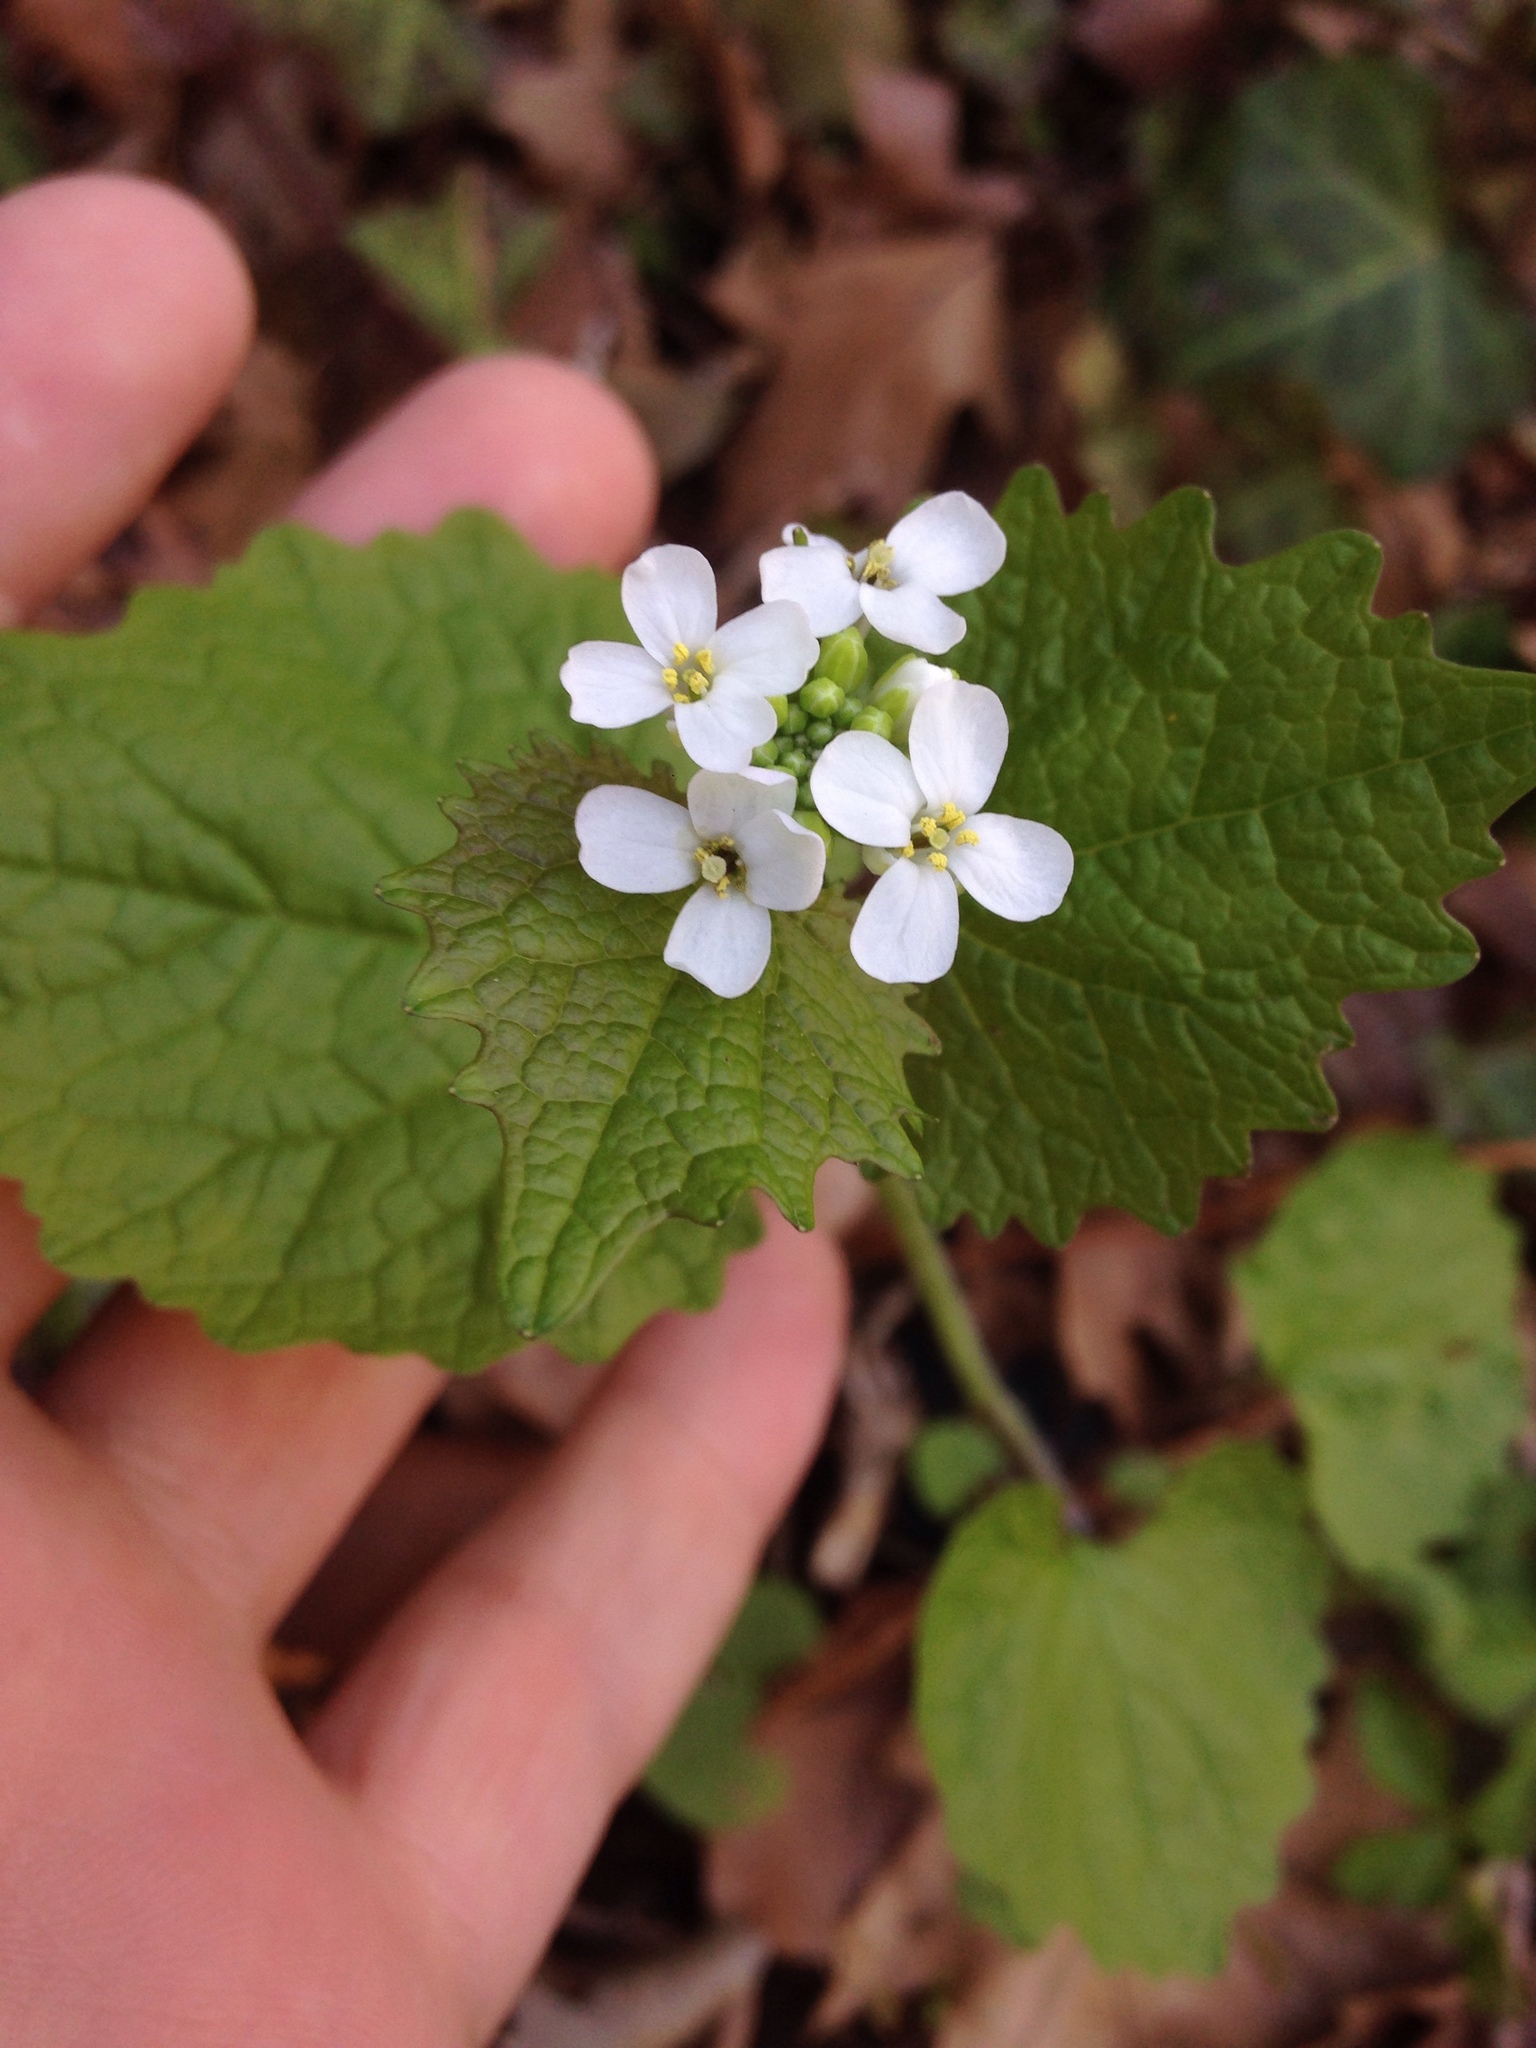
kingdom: Plantae
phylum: Tracheophyta
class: Magnoliopsida
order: Brassicales
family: Brassicaceae
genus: Alliaria
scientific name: Alliaria petiolata
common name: Garlic mustard
